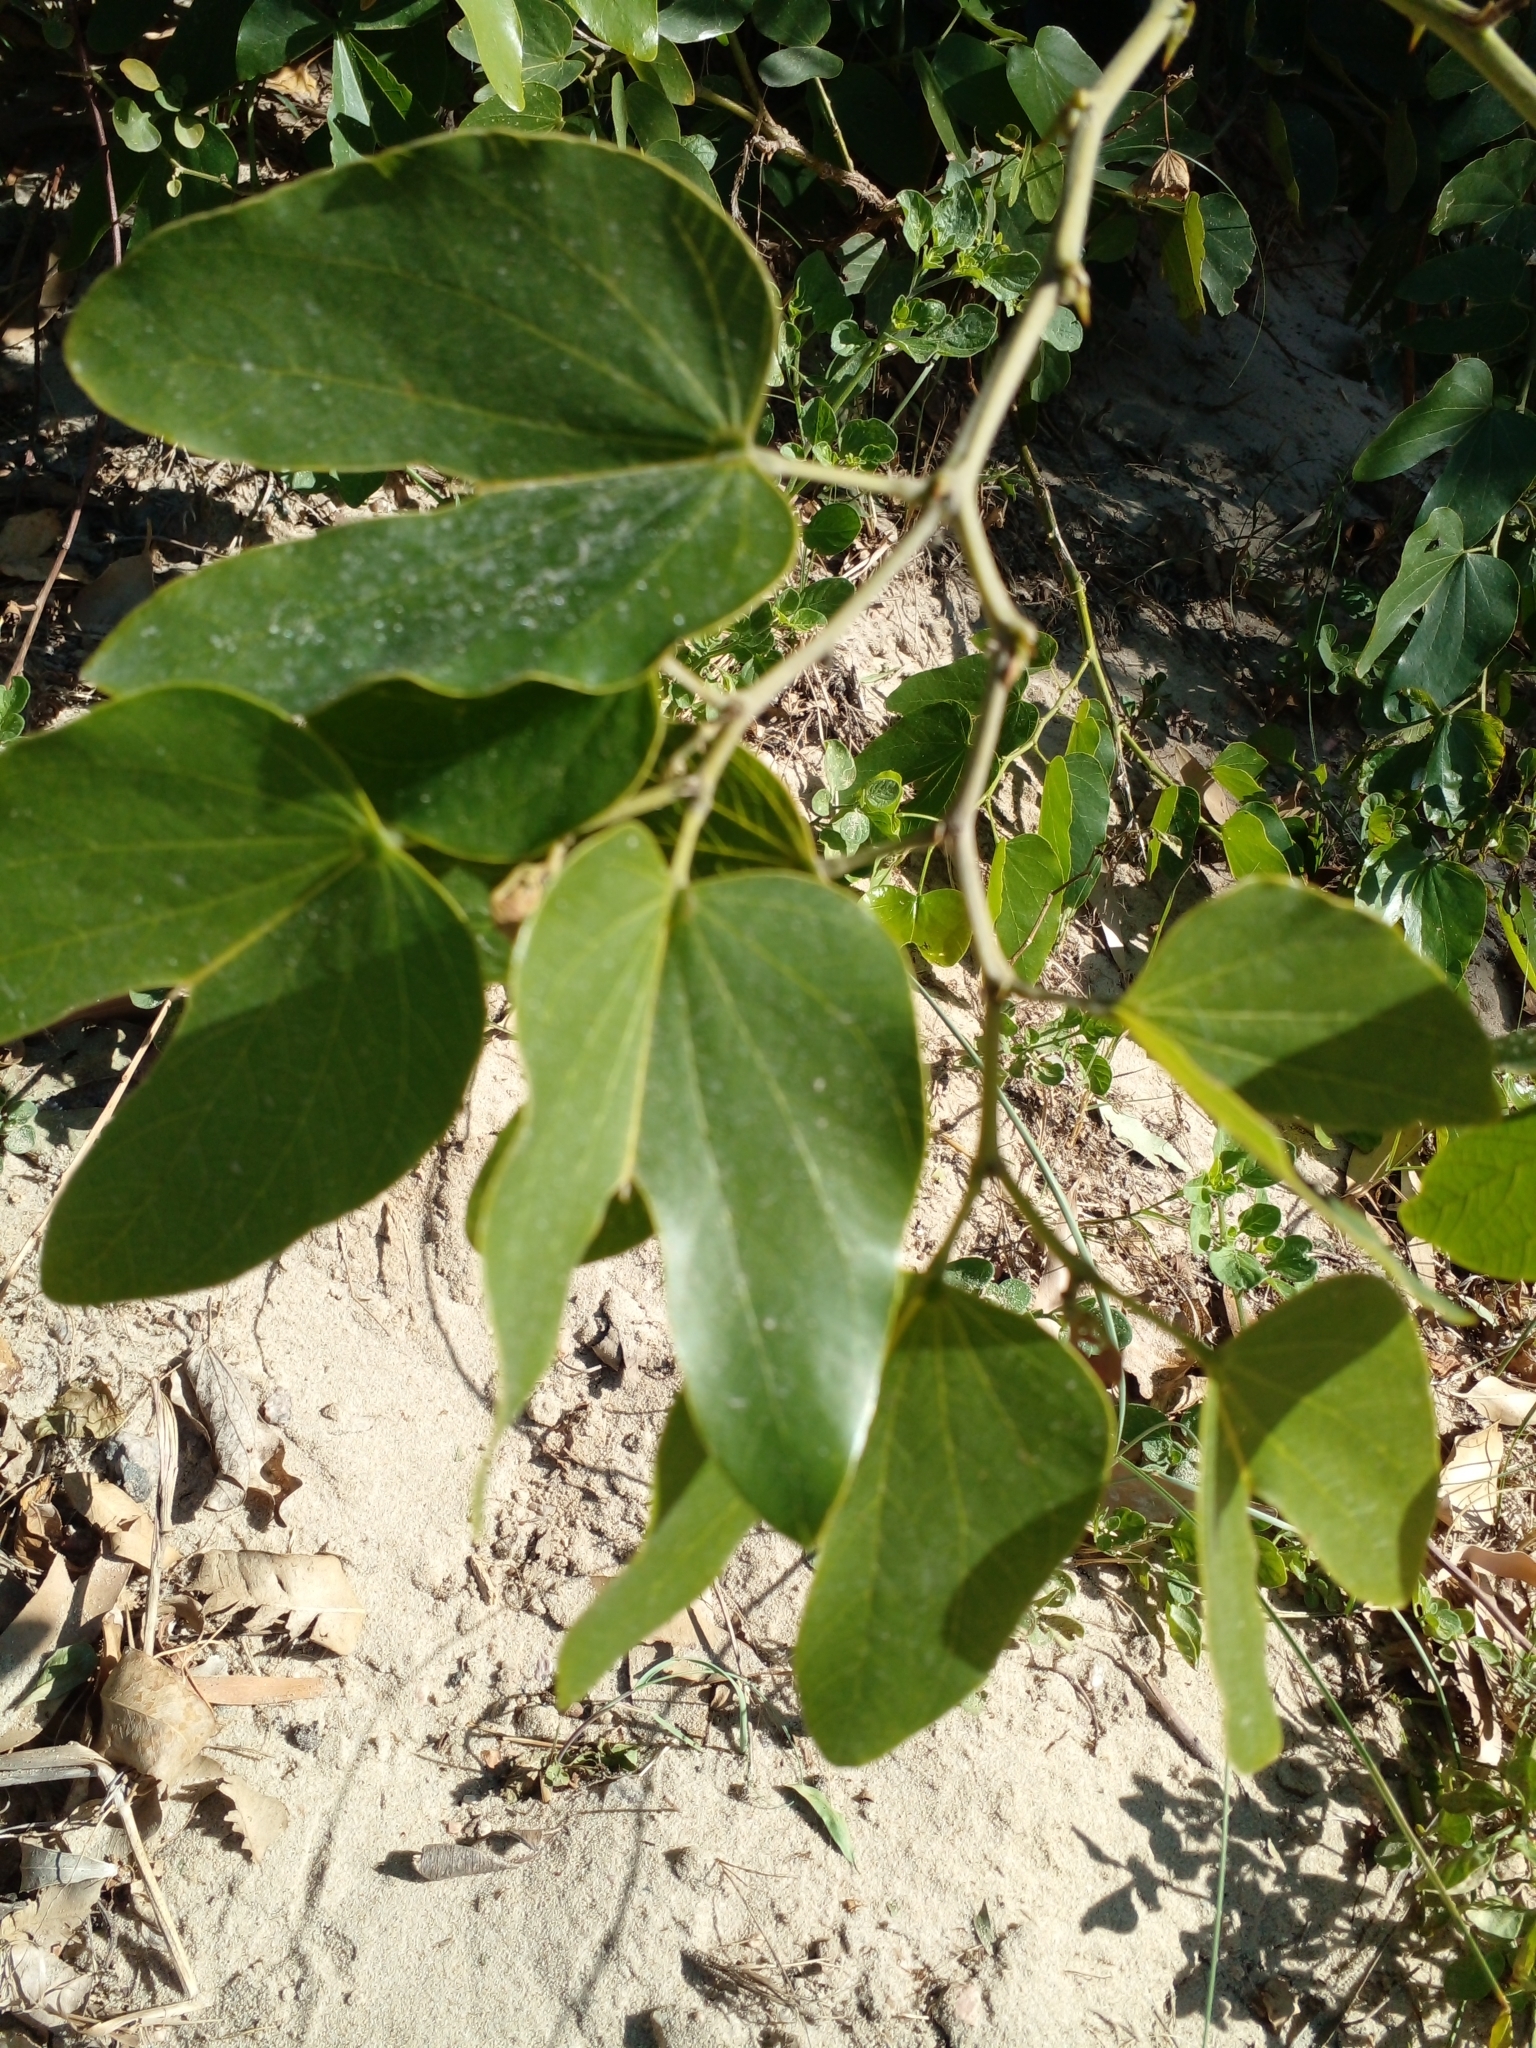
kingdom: Plantae
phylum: Tracheophyta
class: Magnoliopsida
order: Fabales
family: Fabaceae
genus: Bauhinia
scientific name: Bauhinia forficata
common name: Orchid tree
